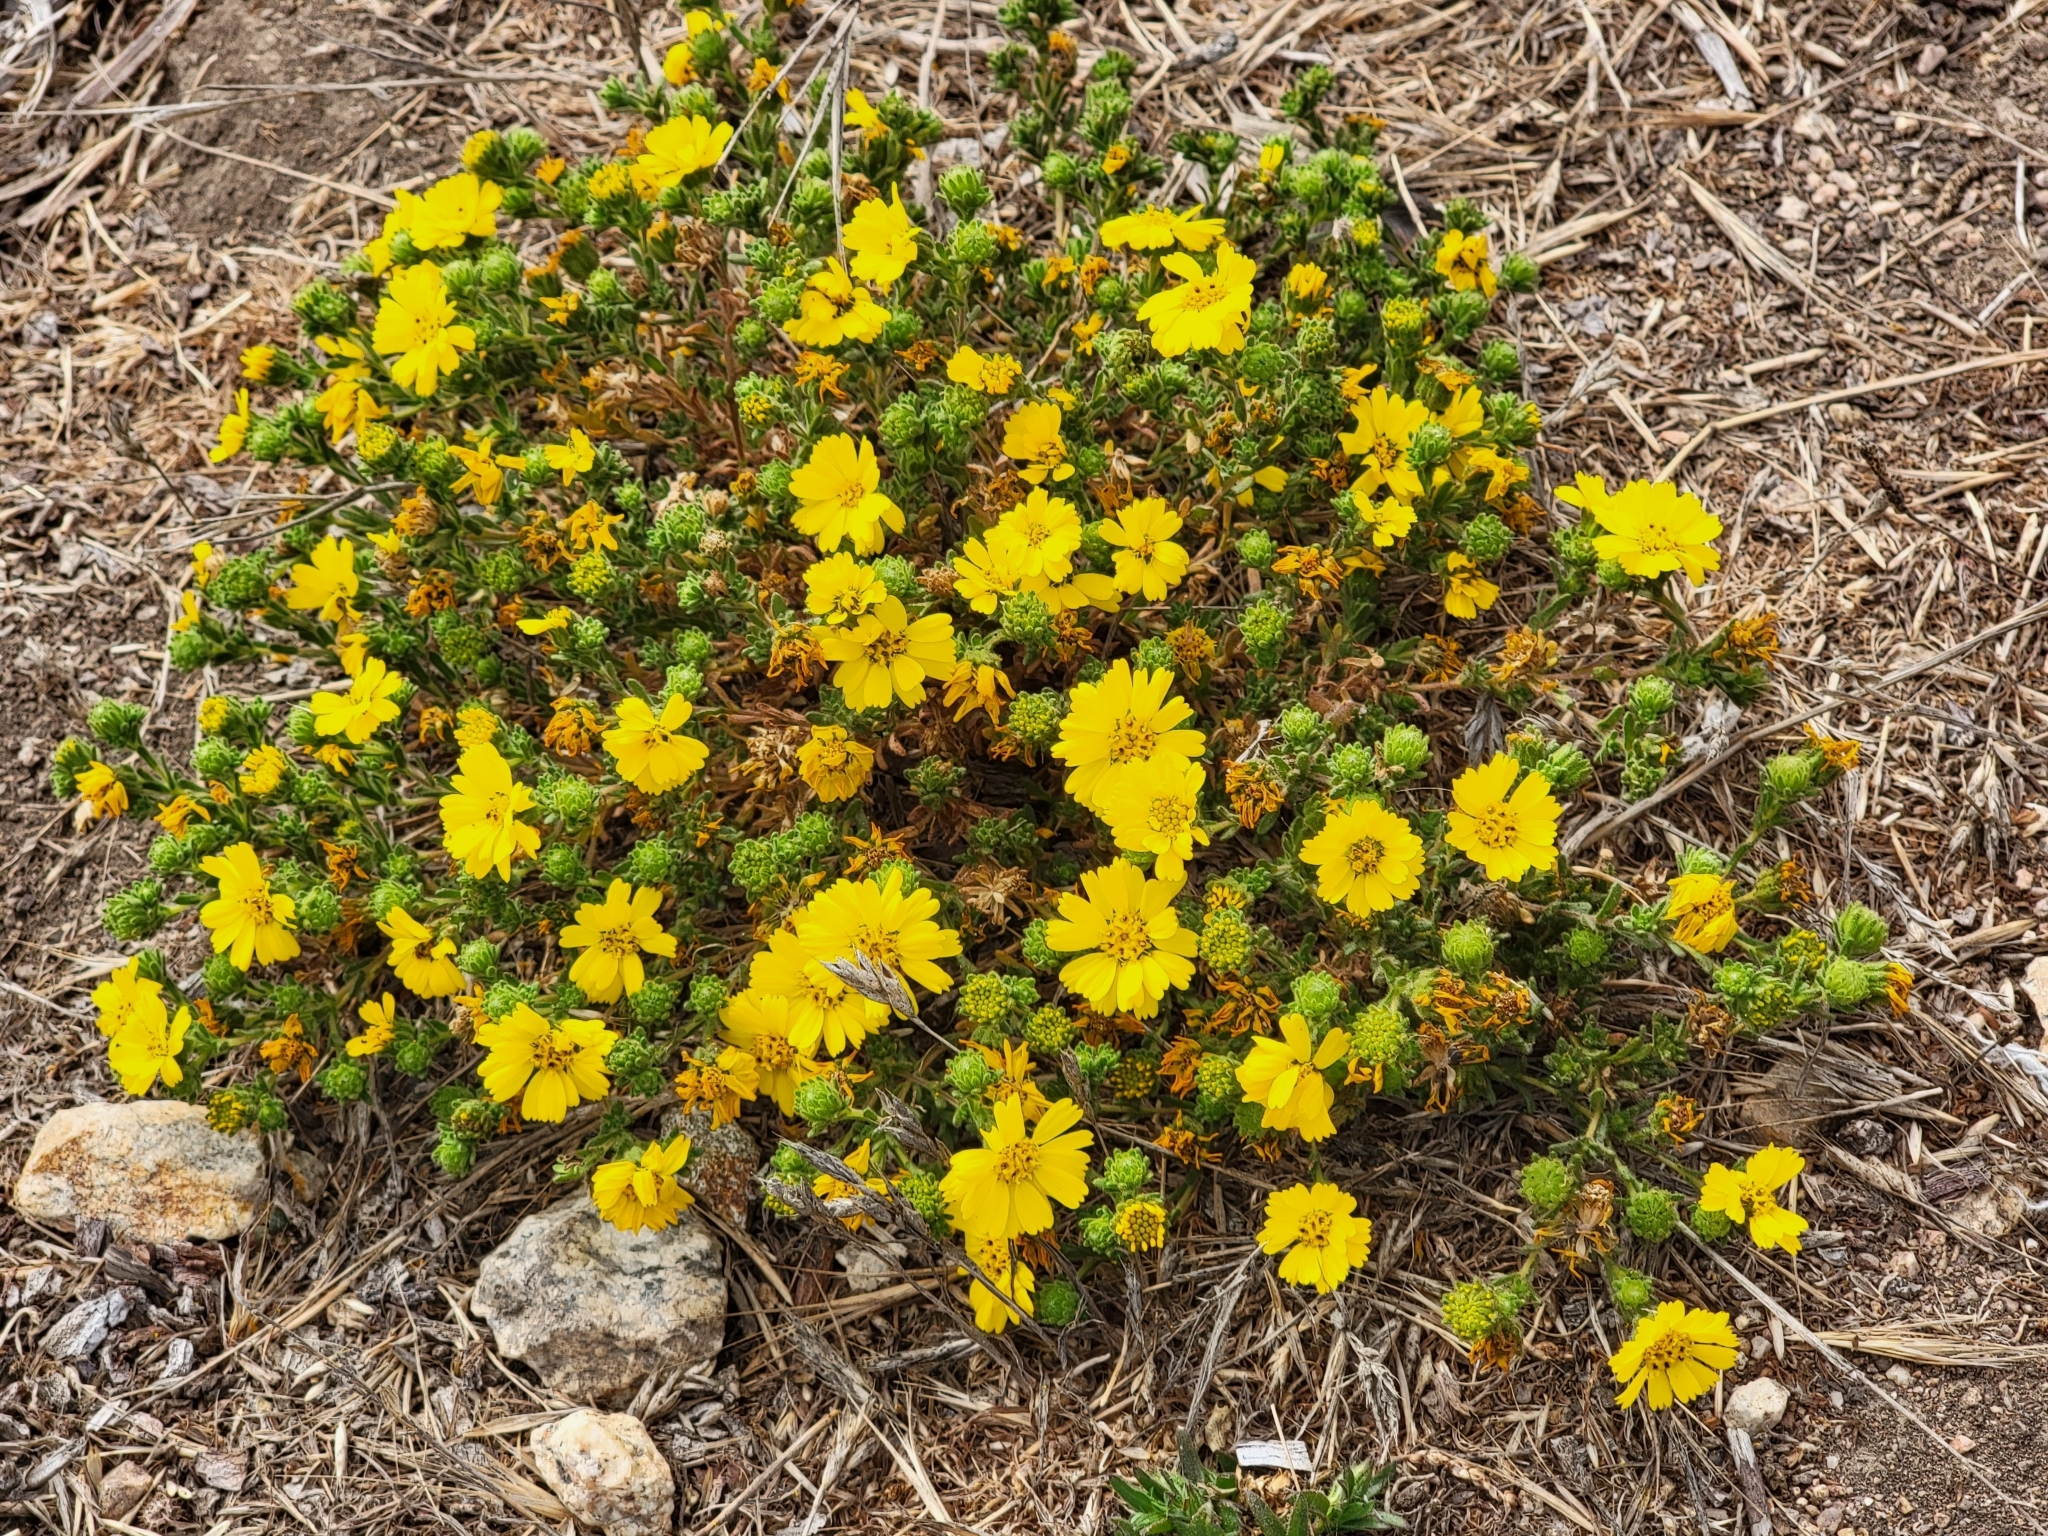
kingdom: Plantae
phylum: Tracheophyta
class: Magnoliopsida
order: Asterales
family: Asteraceae
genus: Deinandra
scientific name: Deinandra corymbosa
